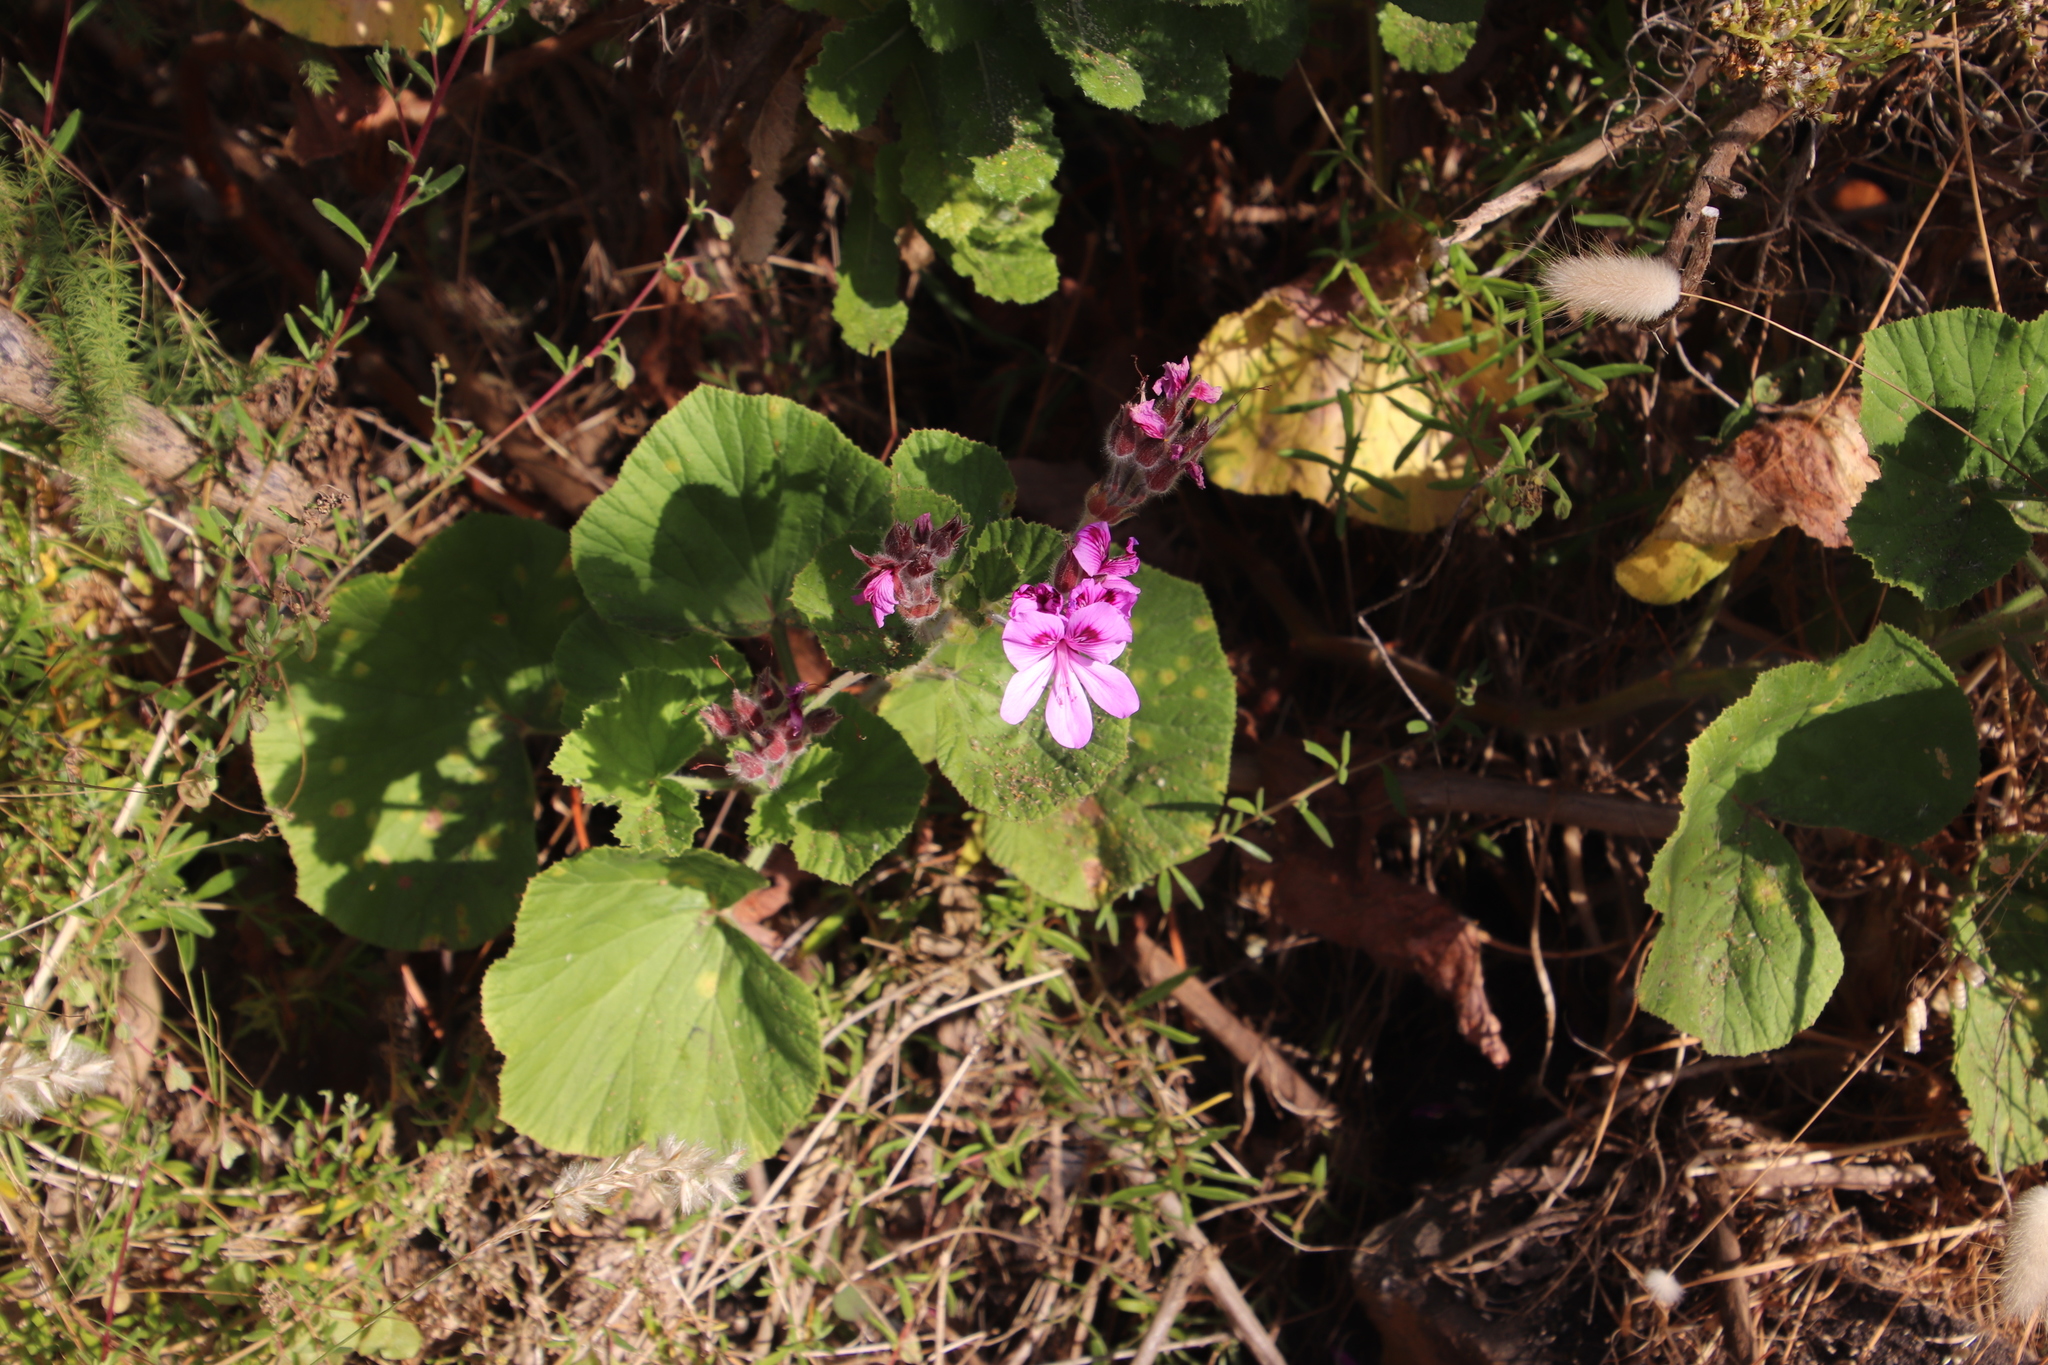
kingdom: Plantae
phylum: Tracheophyta
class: Magnoliopsida
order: Geraniales
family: Geraniaceae
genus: Pelargonium
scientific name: Pelargonium cucullatum
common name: Tree pelargonium
